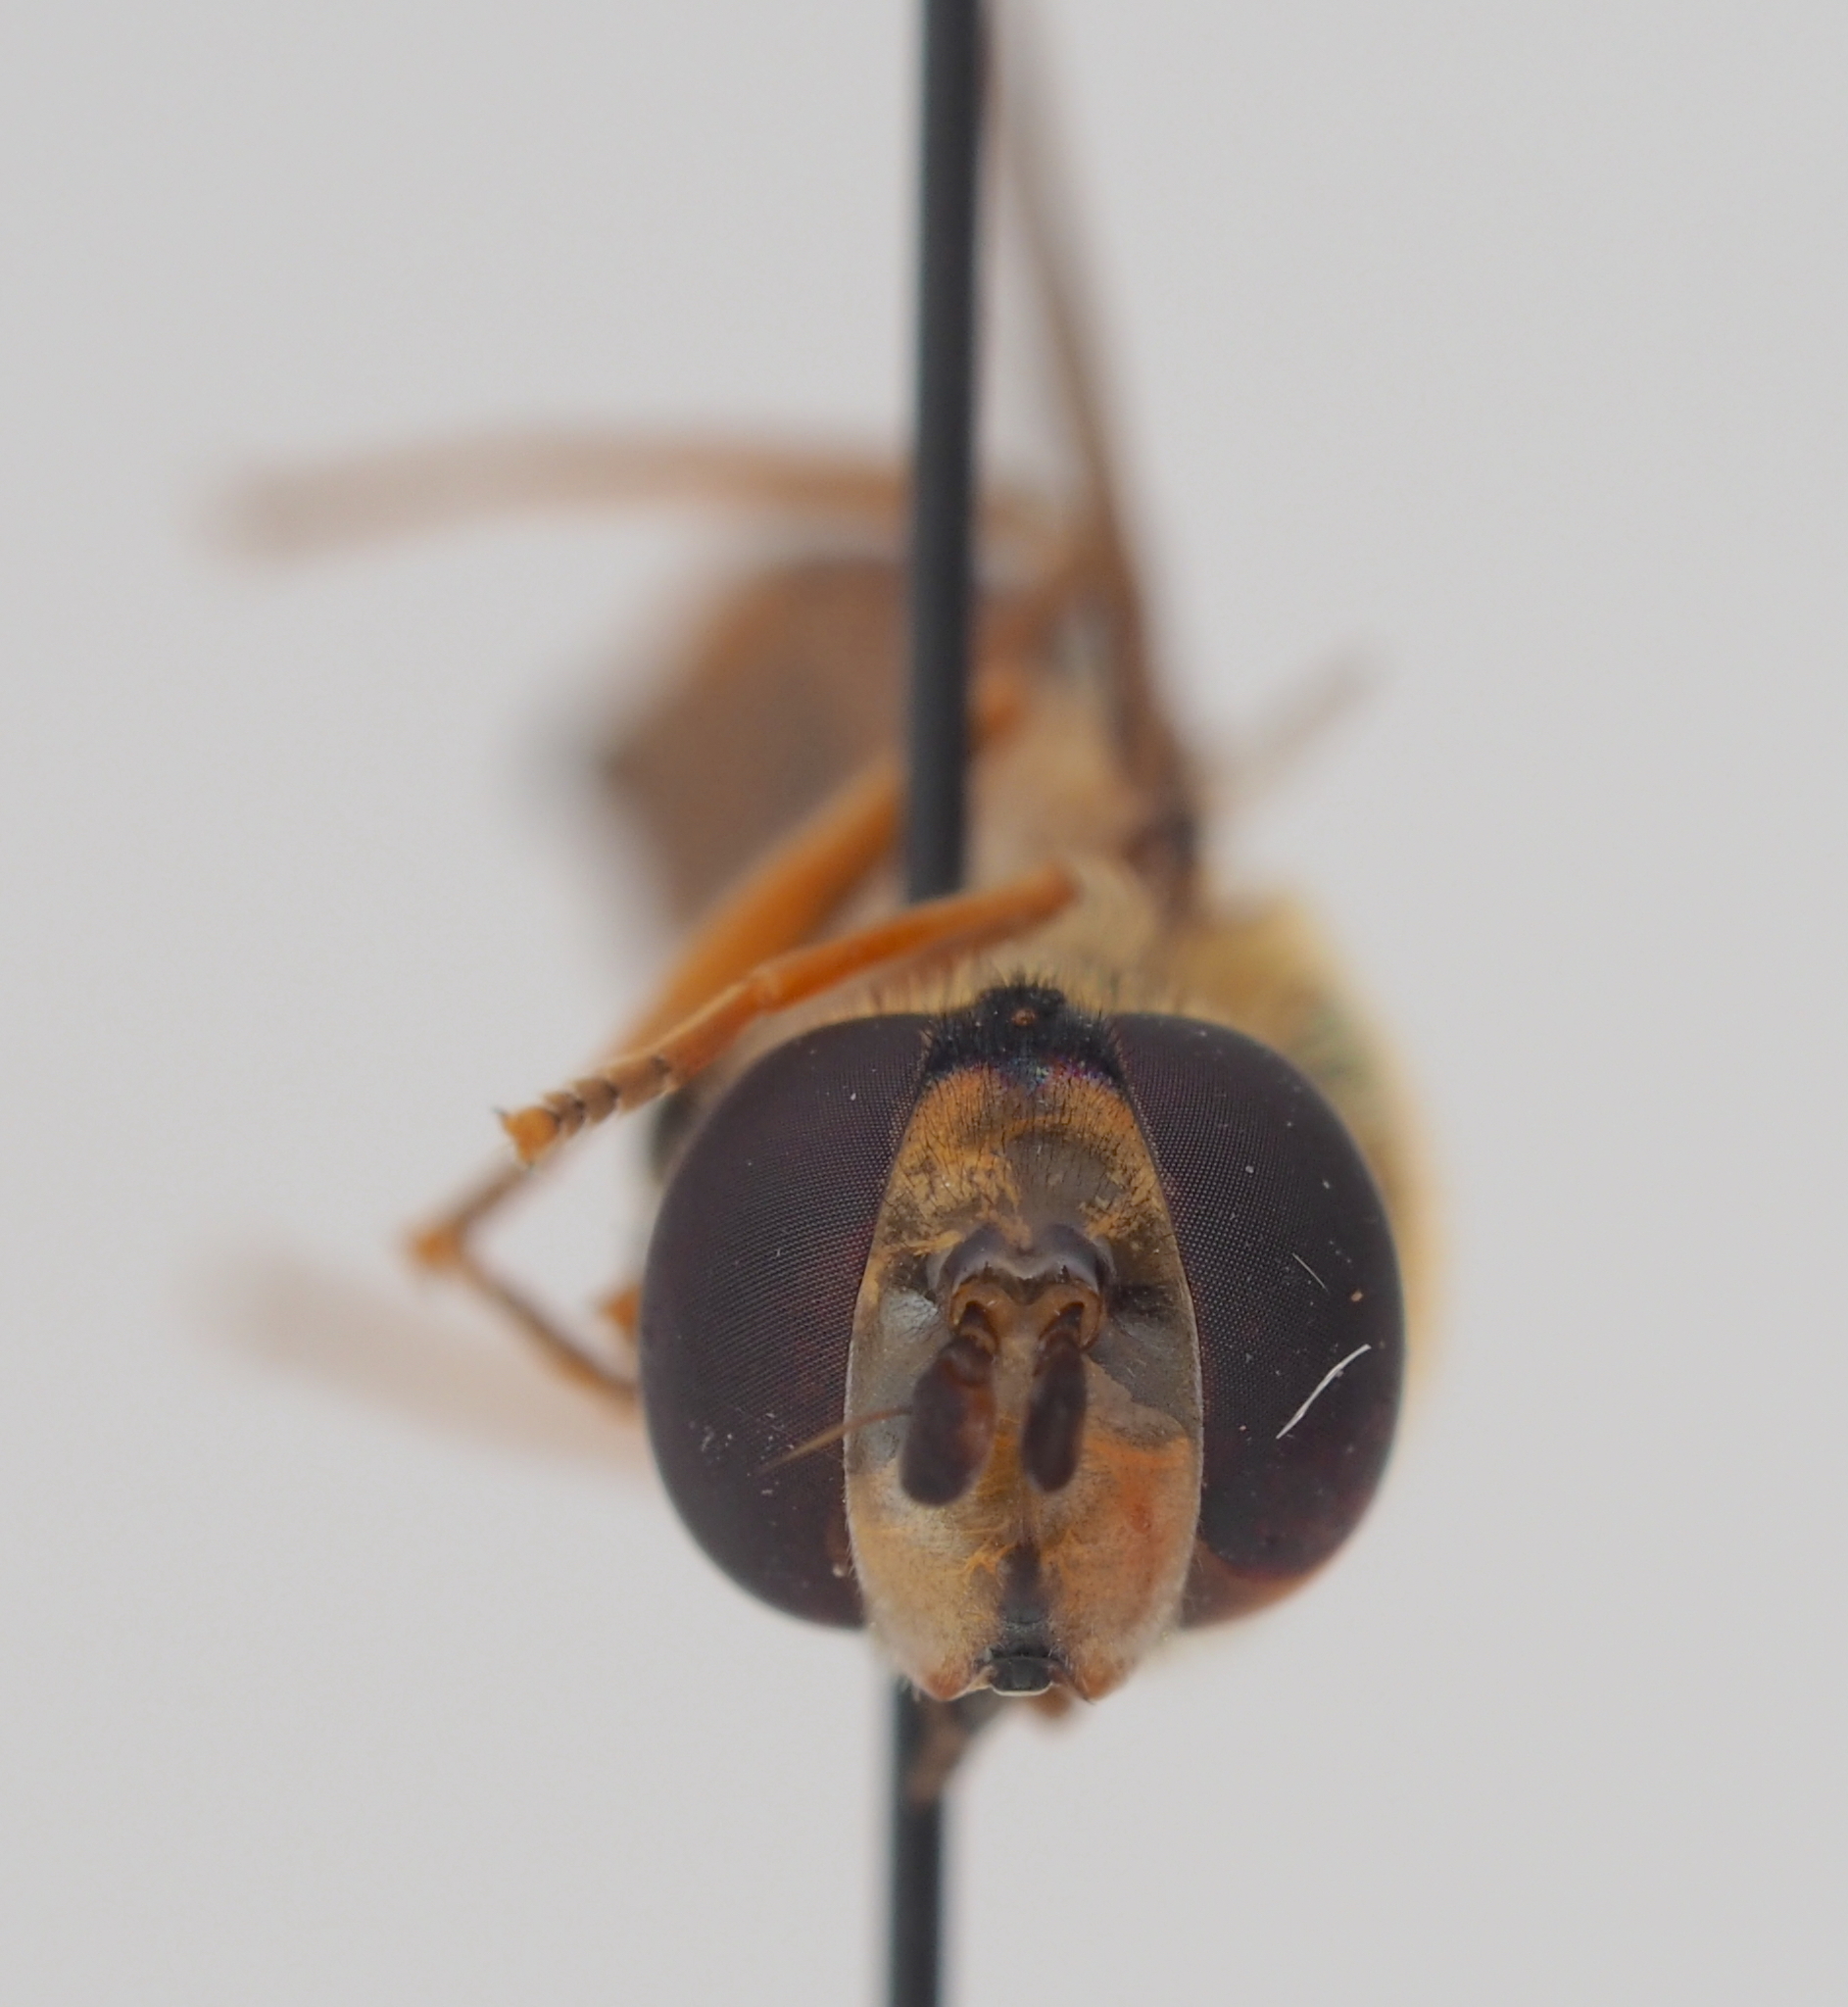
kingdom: Animalia
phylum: Arthropoda
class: Insecta
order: Diptera
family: Syrphidae
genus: Eupeodes
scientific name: Eupeodes corollae
